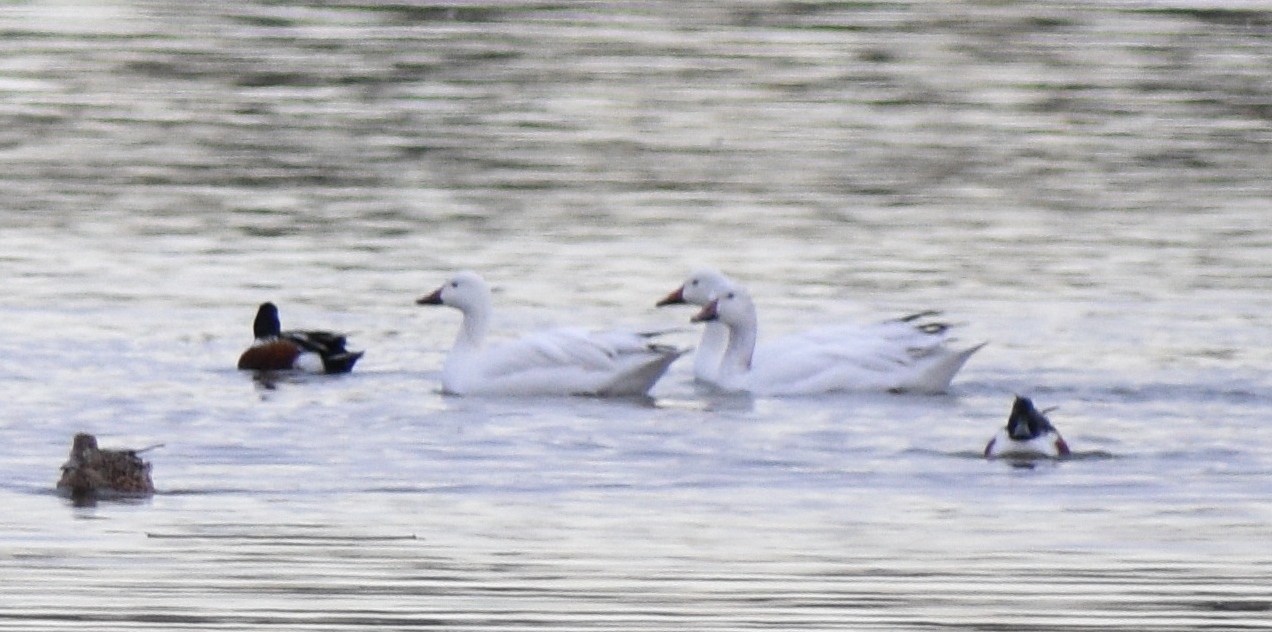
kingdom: Animalia
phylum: Chordata
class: Aves
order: Anseriformes
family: Anatidae
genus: Anser
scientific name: Anser caerulescens
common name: Snow goose
